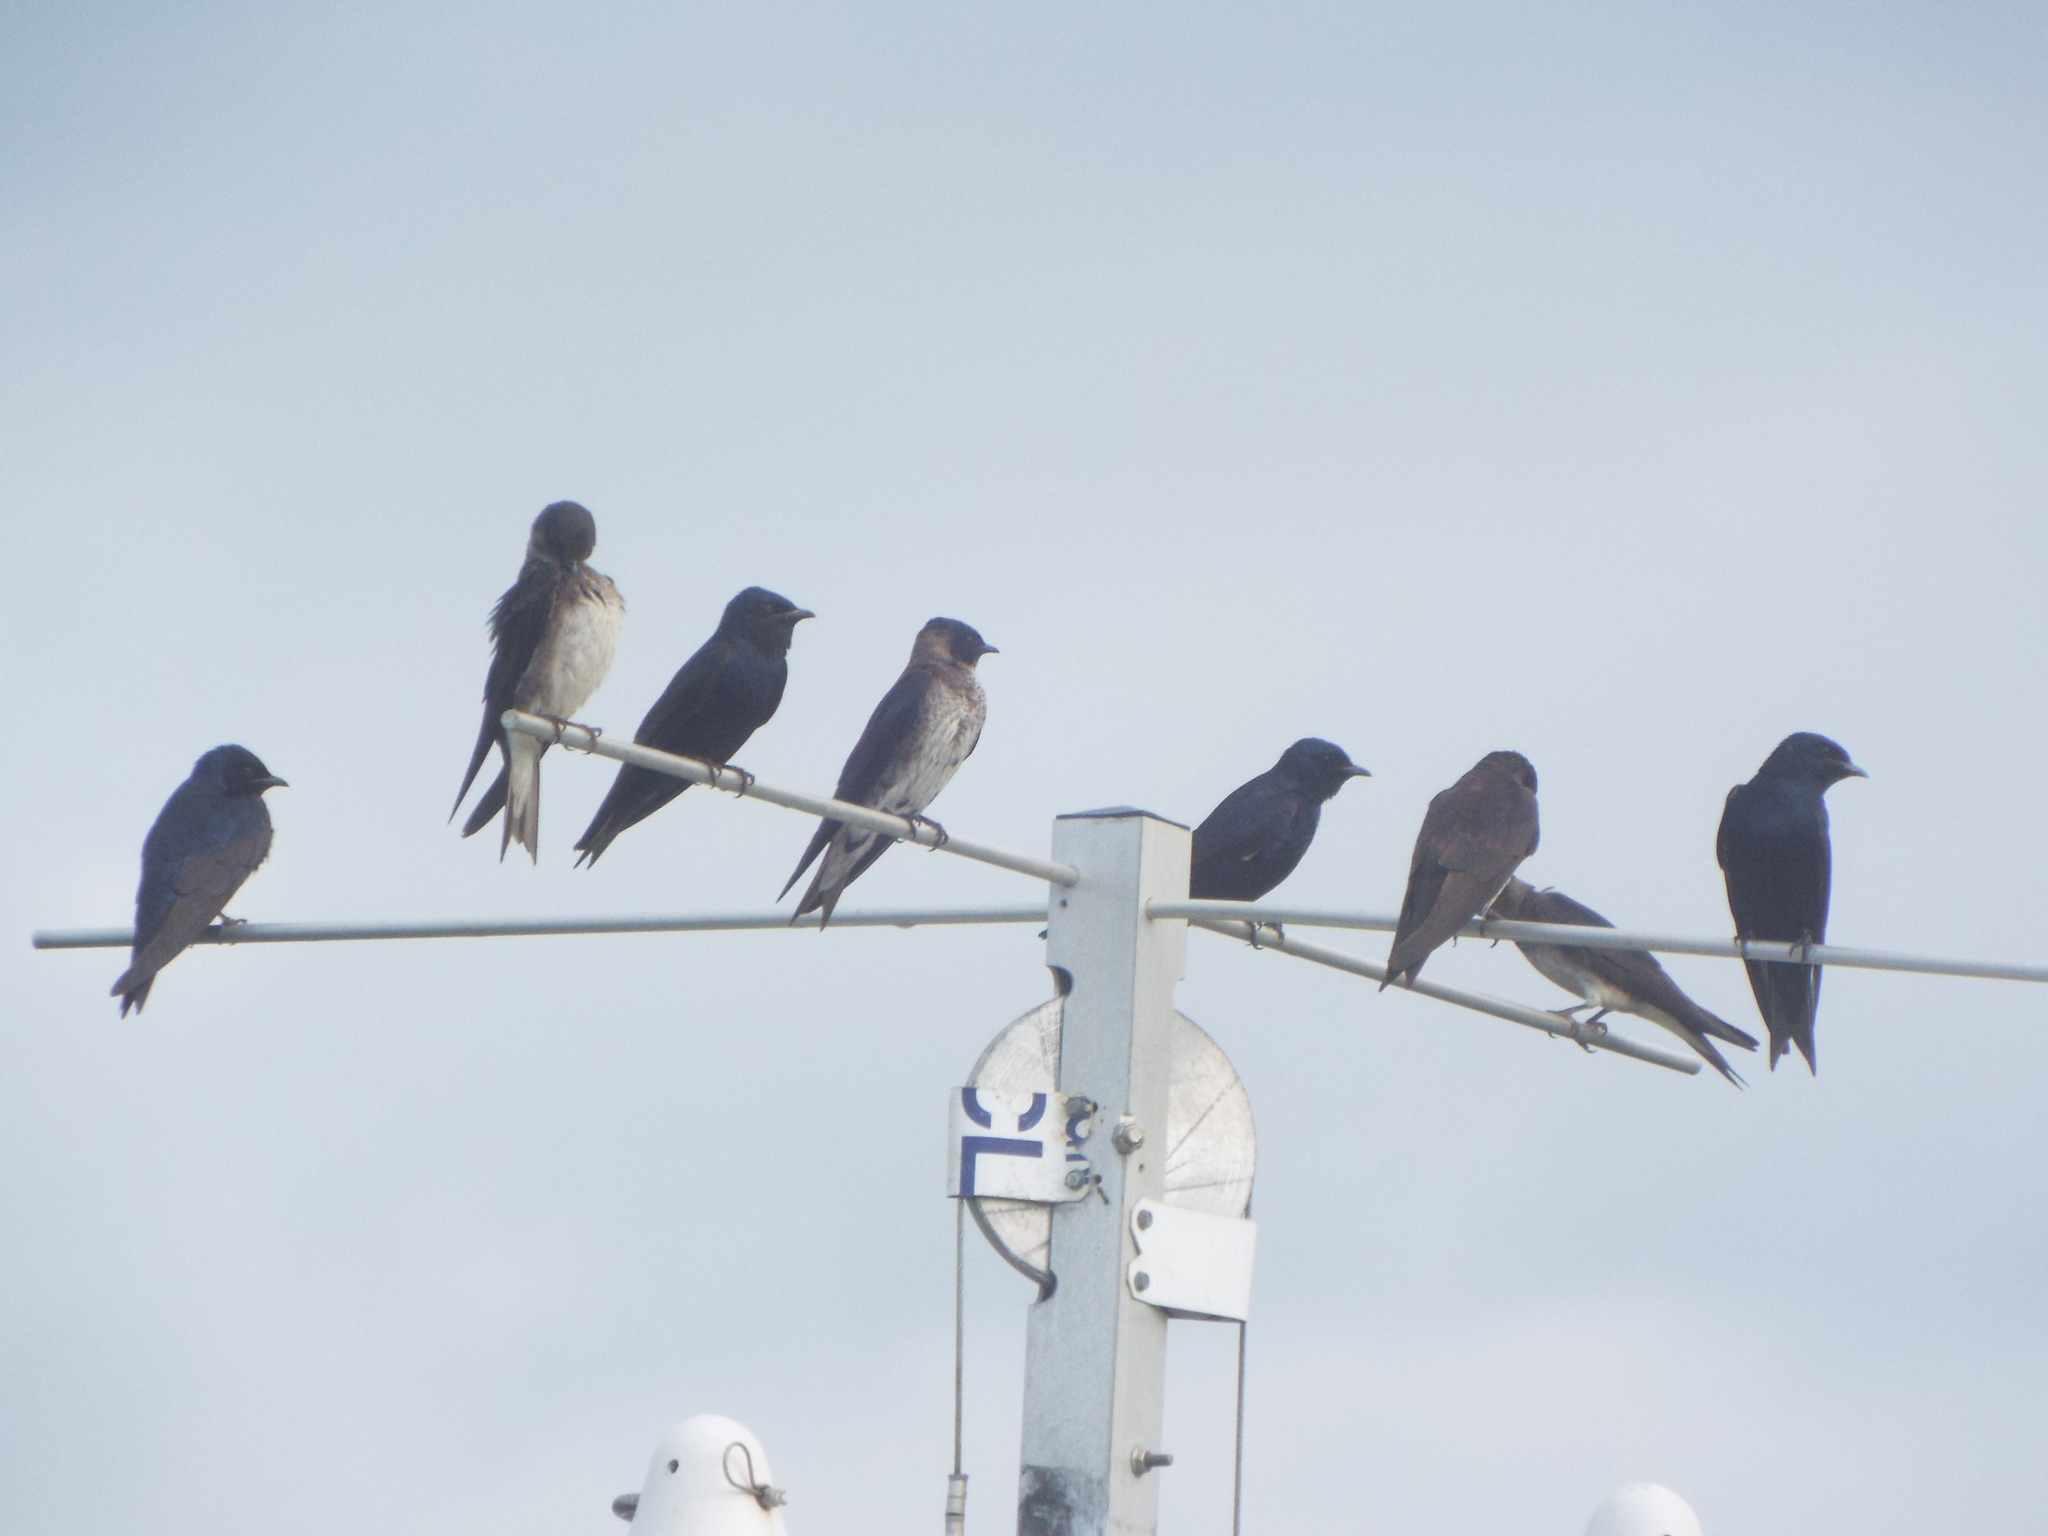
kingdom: Animalia
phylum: Chordata
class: Aves
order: Passeriformes
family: Hirundinidae
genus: Progne
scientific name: Progne subis
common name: Purple martin
